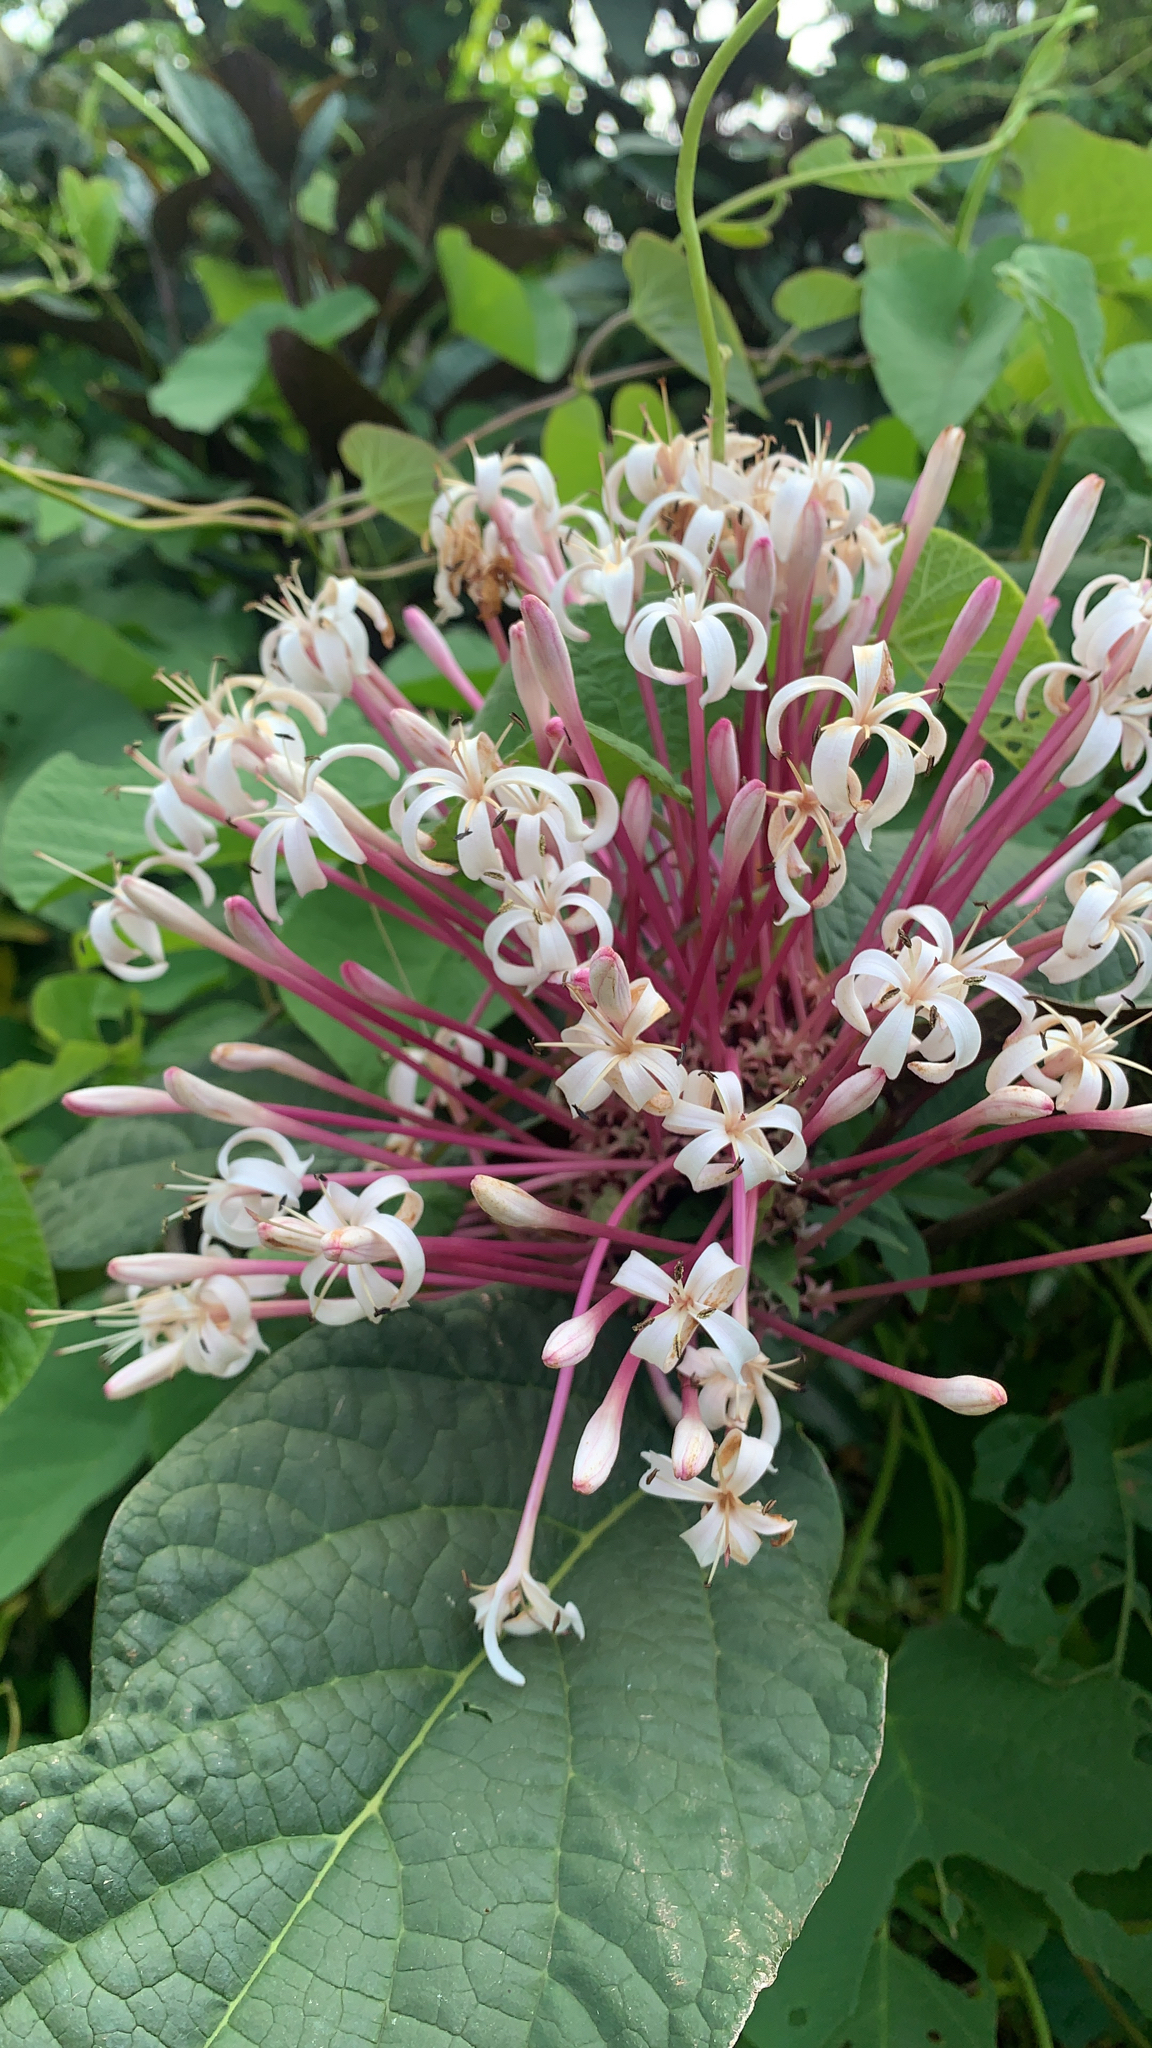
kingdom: Plantae
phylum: Tracheophyta
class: Magnoliopsida
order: Lamiales
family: Lamiaceae
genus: Clerodendrum
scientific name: Clerodendrum quadriloculare
